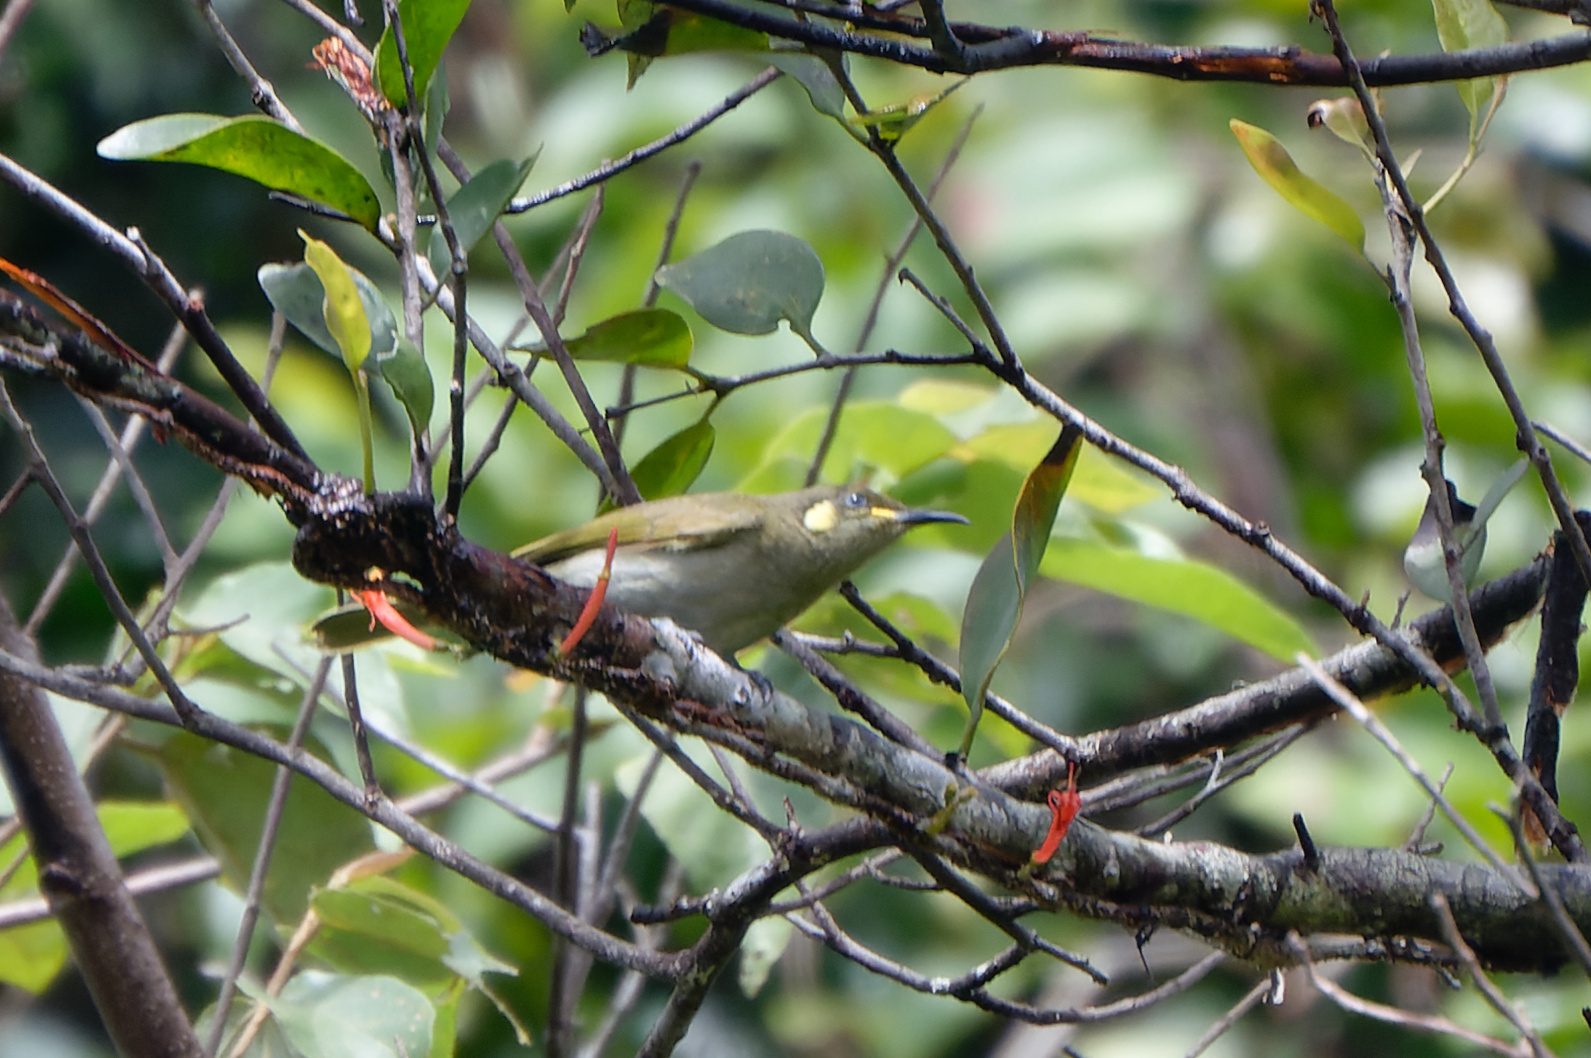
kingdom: Animalia
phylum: Chordata
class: Aves
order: Passeriformes
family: Meliphagidae
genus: Microptilotis
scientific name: Microptilotis imitatrix
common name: Cryptic honeyeater
